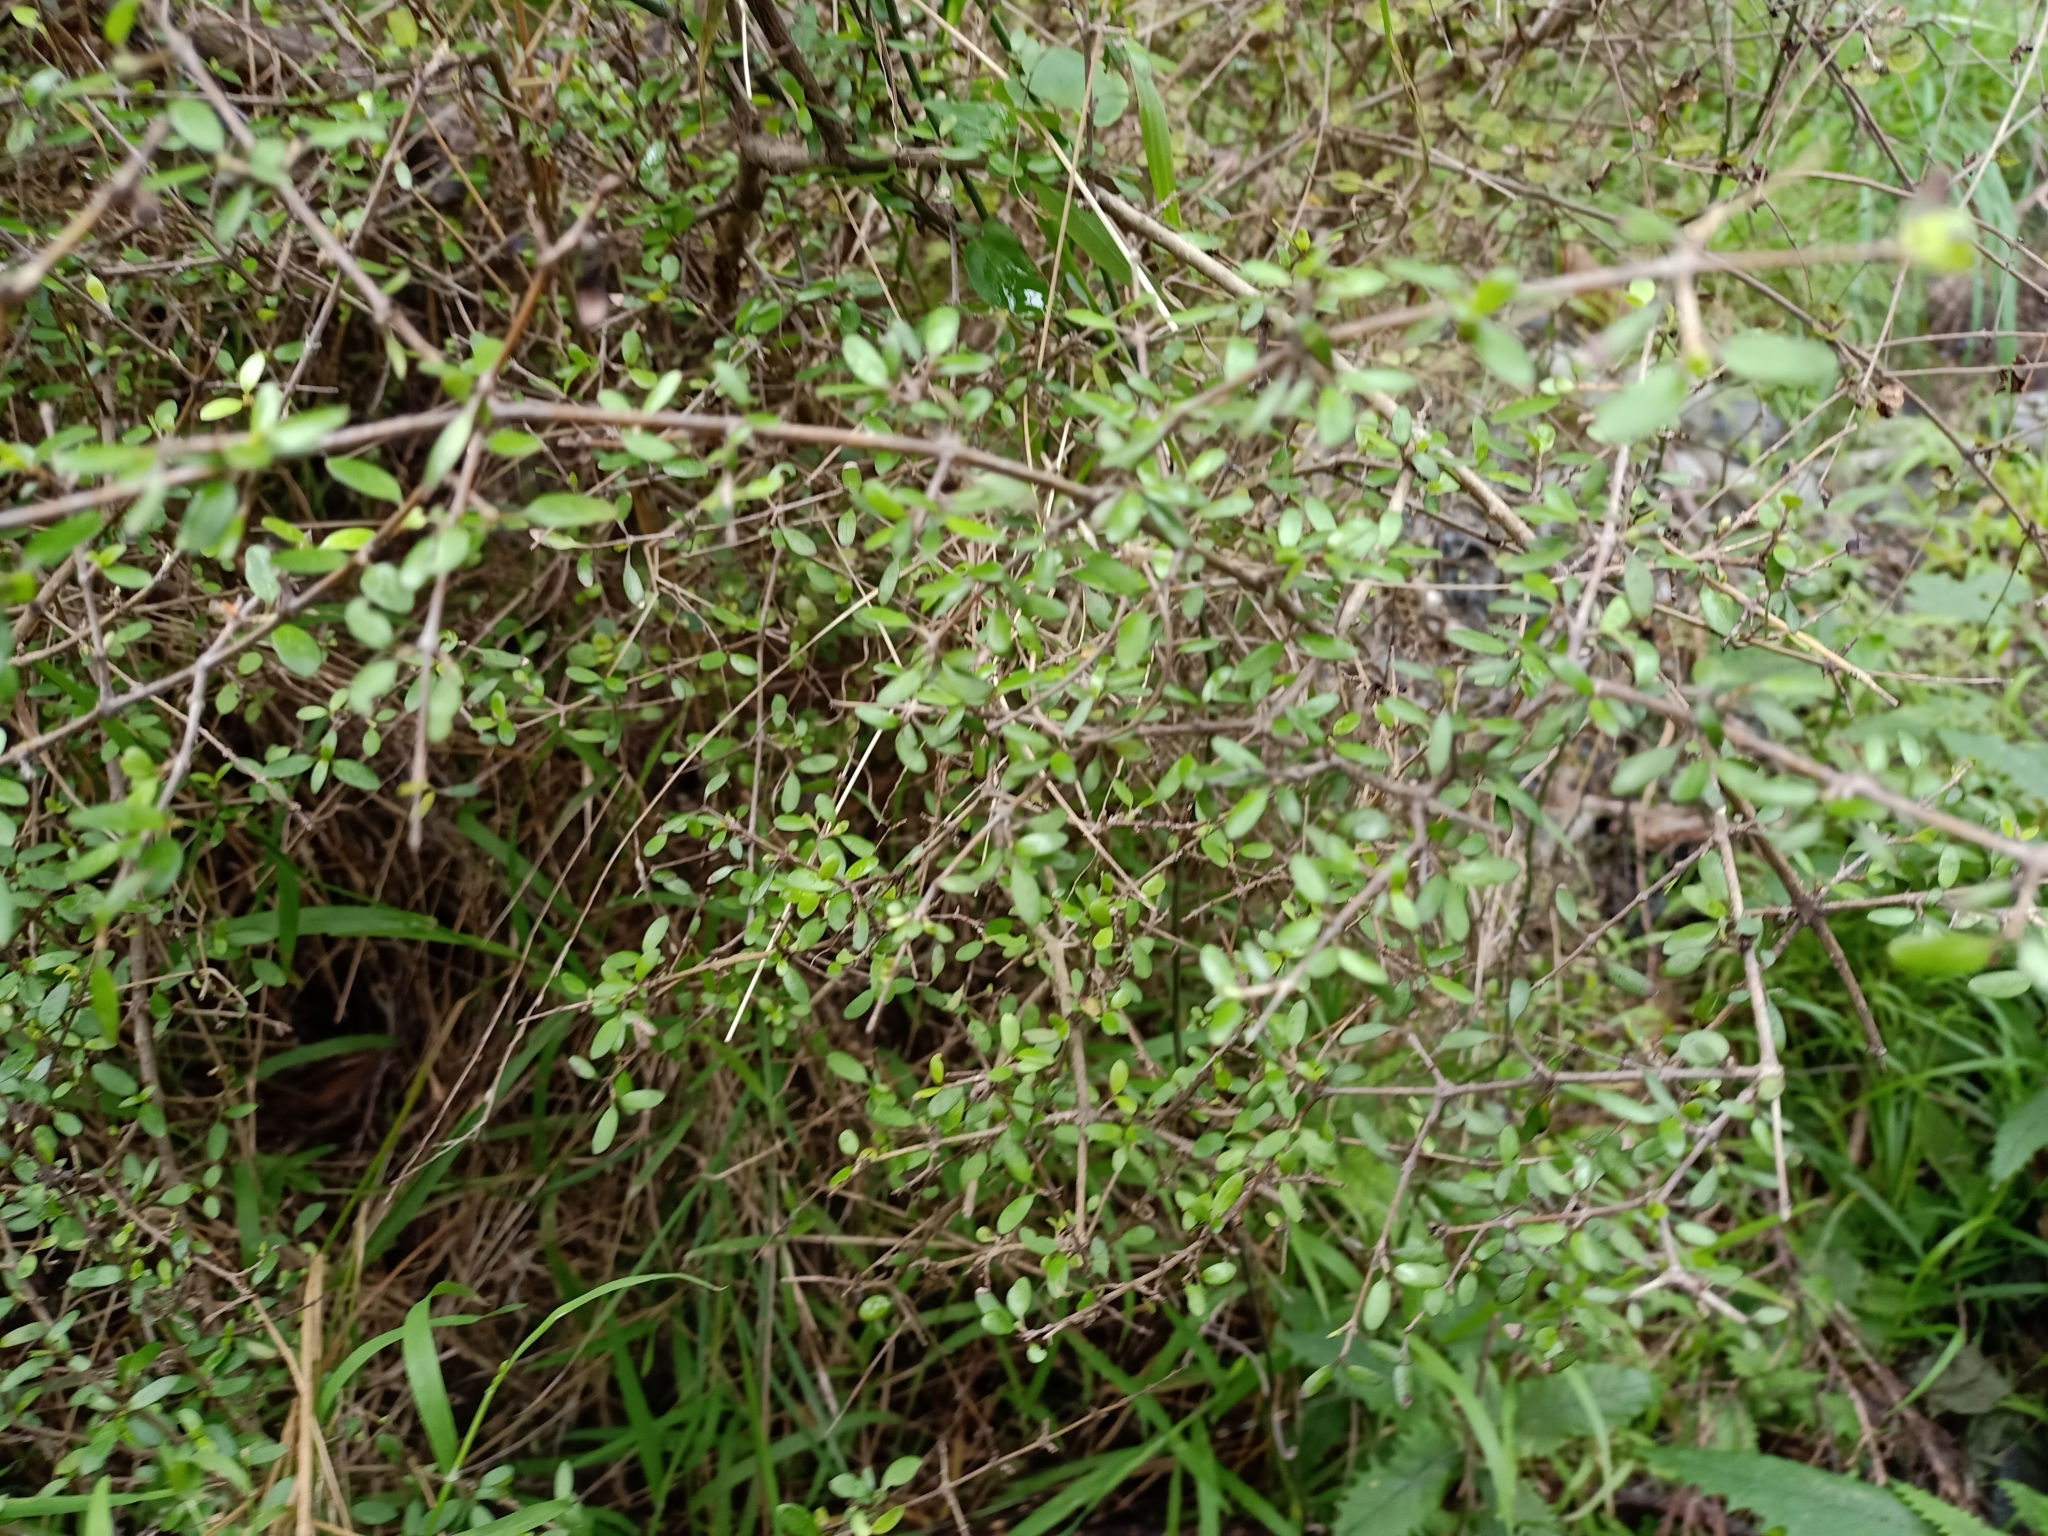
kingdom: Plantae
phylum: Tracheophyta
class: Magnoliopsida
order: Gentianales
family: Rubiaceae
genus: Coprosma
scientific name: Coprosma propinqua
